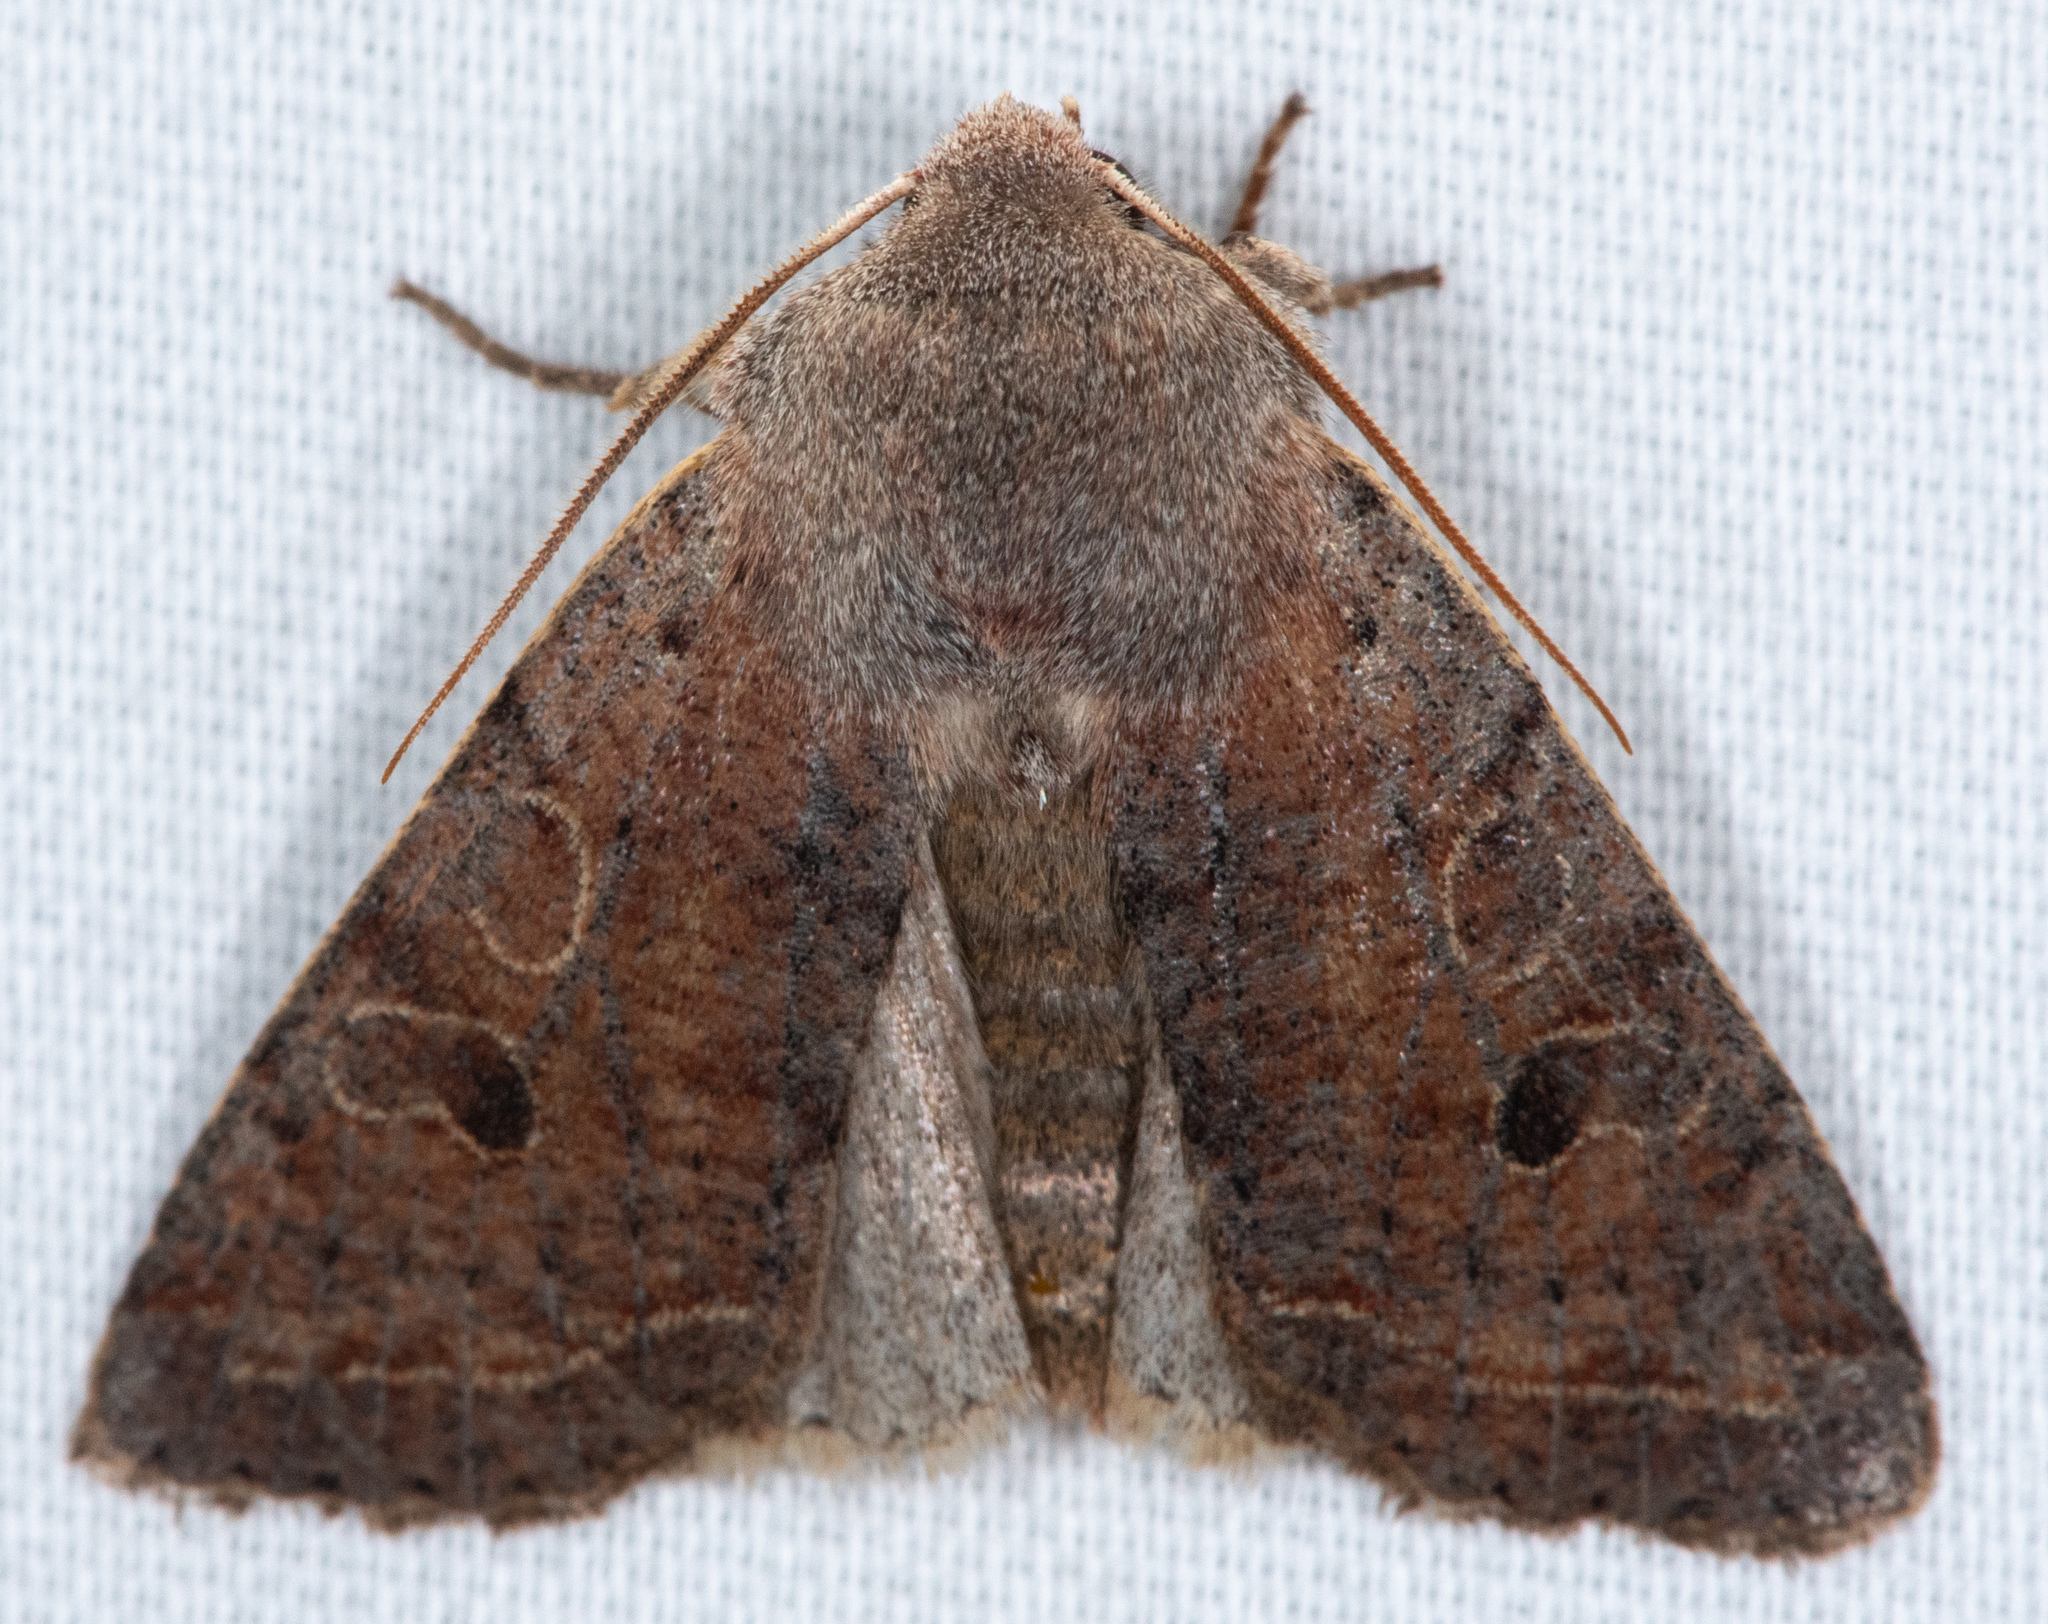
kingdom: Animalia
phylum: Arthropoda
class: Insecta
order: Lepidoptera
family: Noctuidae
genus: Orthosia
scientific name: Orthosia hibisci
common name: Green fruitworm
